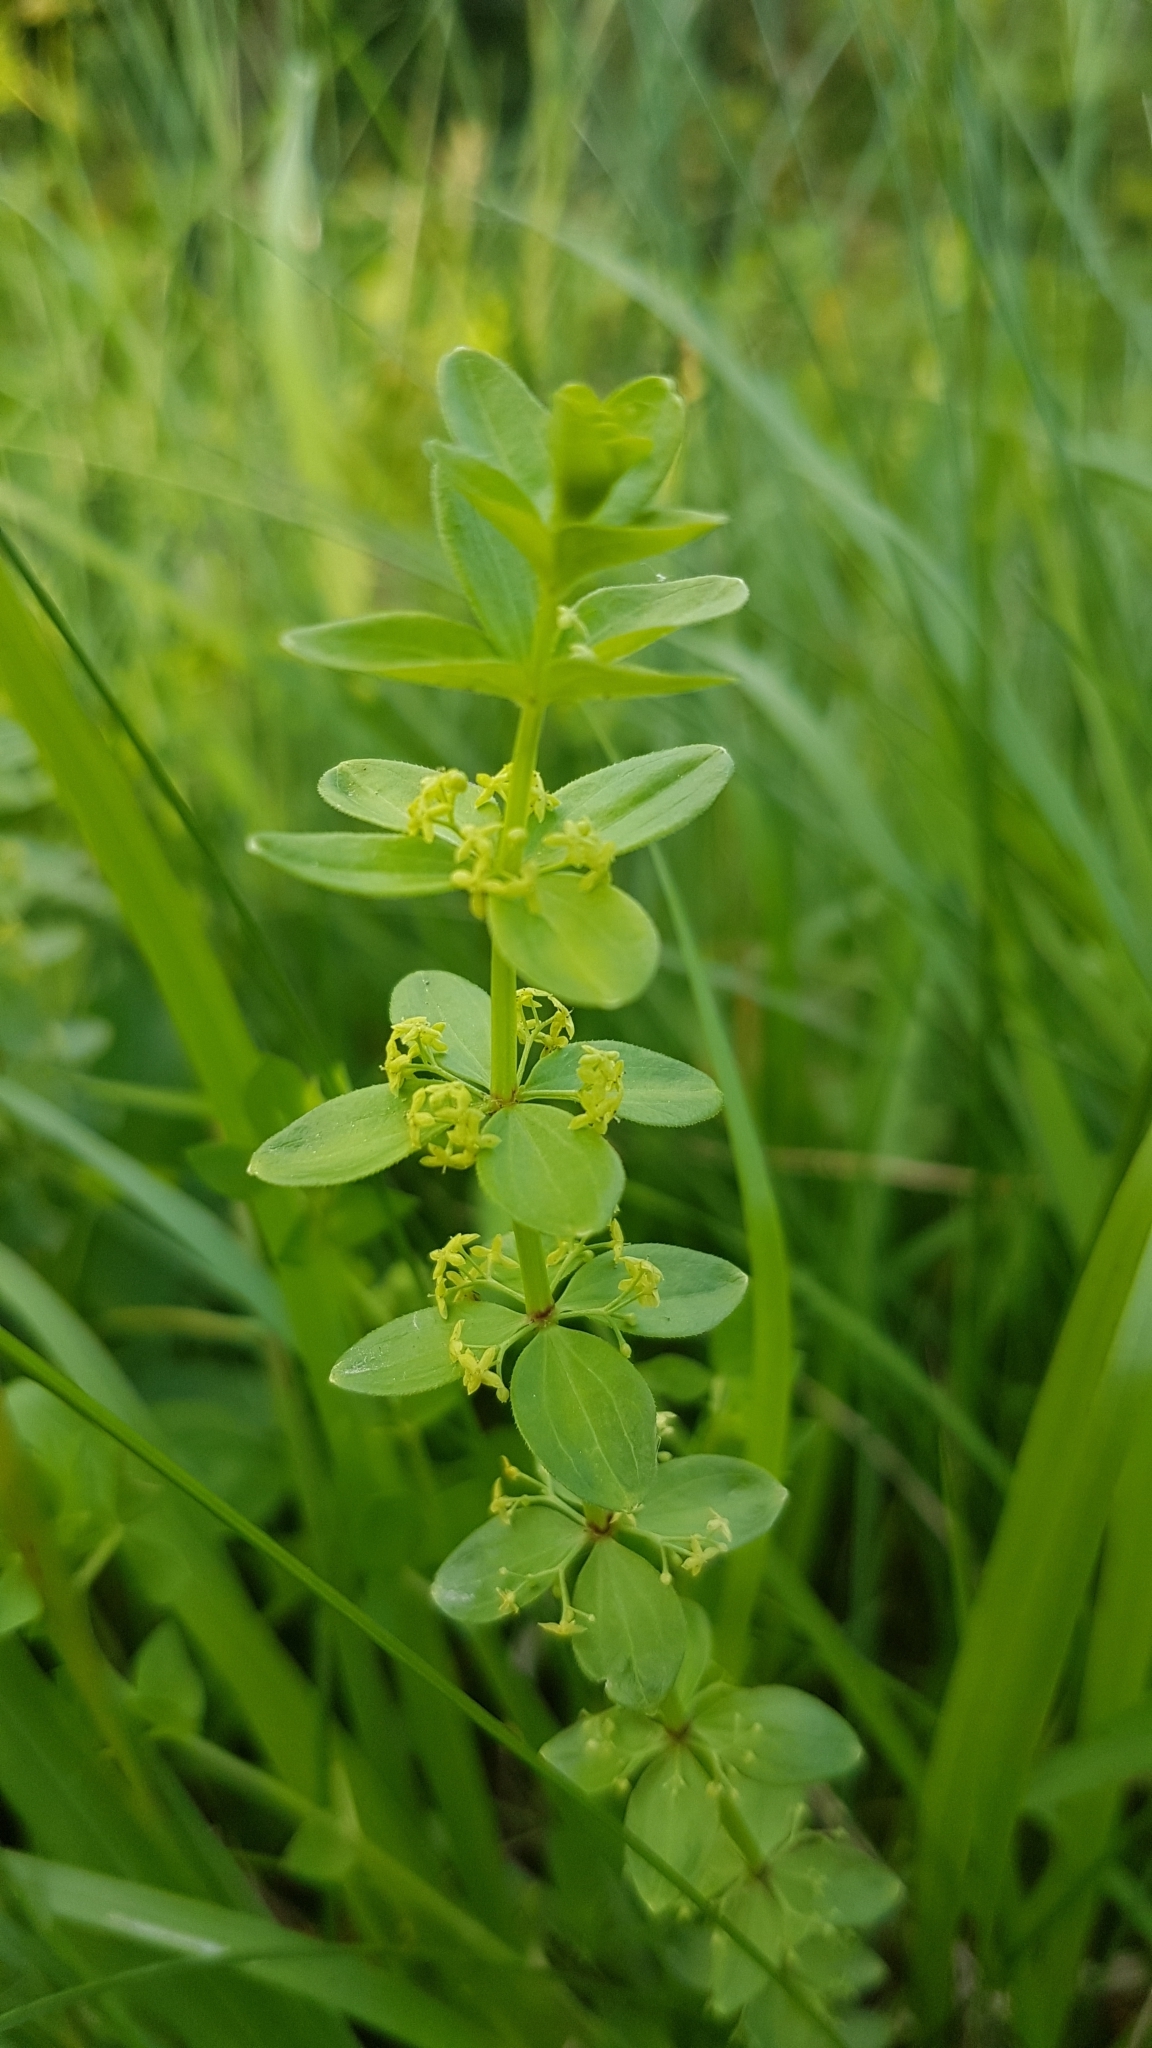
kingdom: Plantae
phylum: Tracheophyta
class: Magnoliopsida
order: Gentianales
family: Rubiaceae
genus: Cruciata
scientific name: Cruciata glabra
